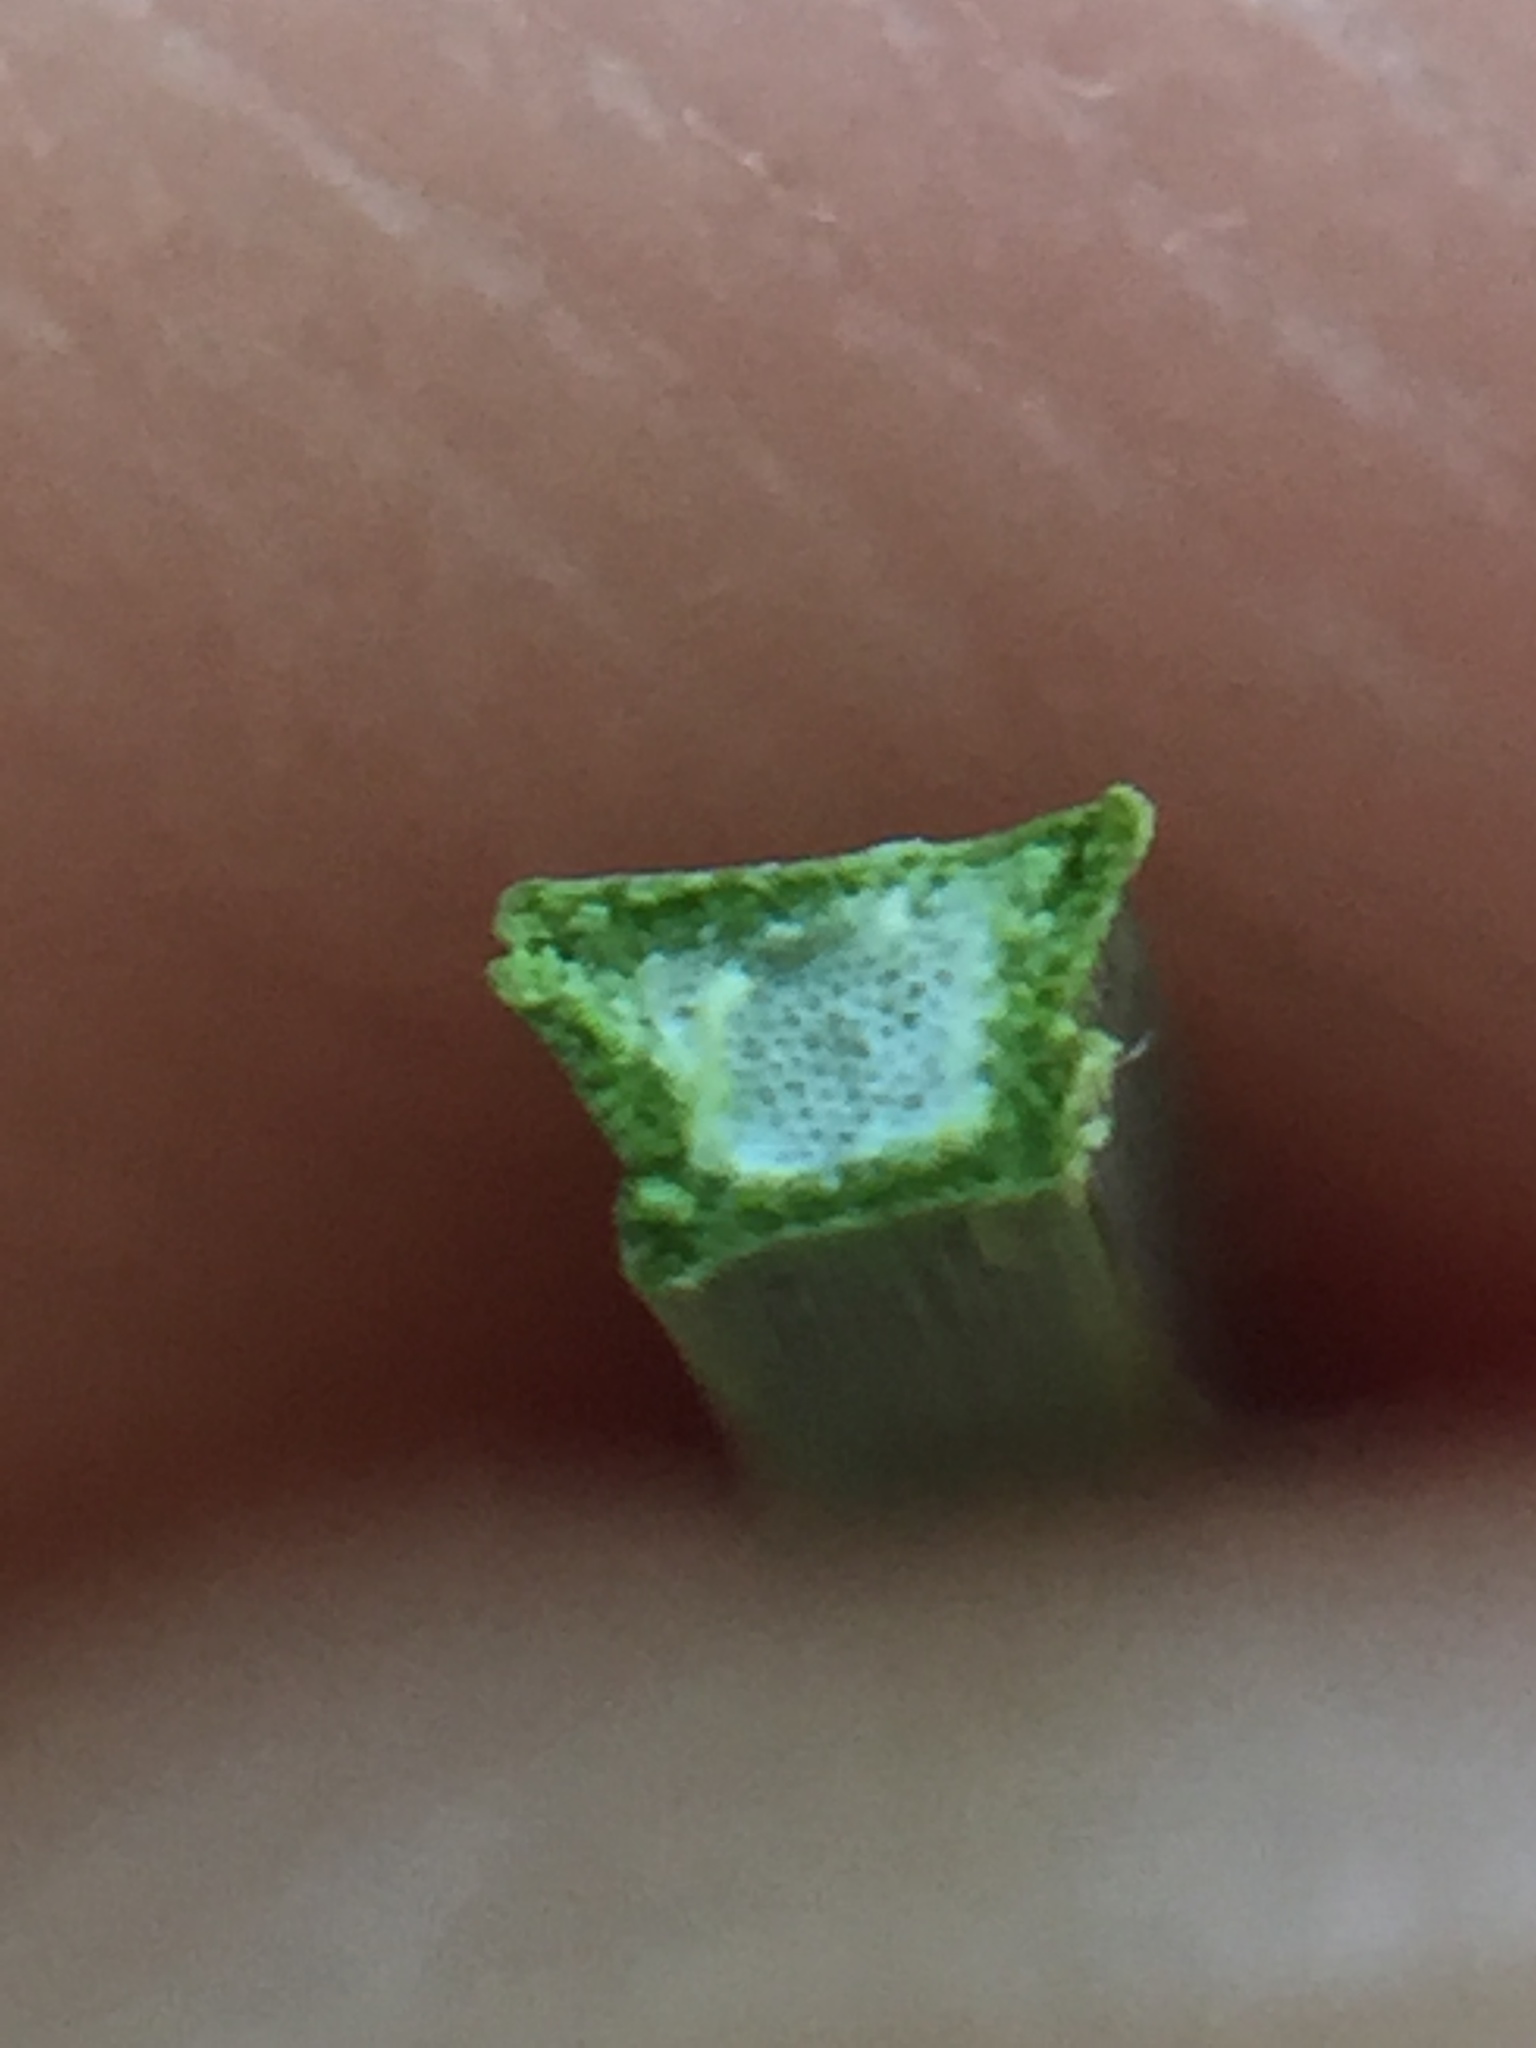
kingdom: Plantae
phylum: Tracheophyta
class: Liliopsida
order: Poales
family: Cyperaceae
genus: Lepidosperma
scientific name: Lepidosperma australe
